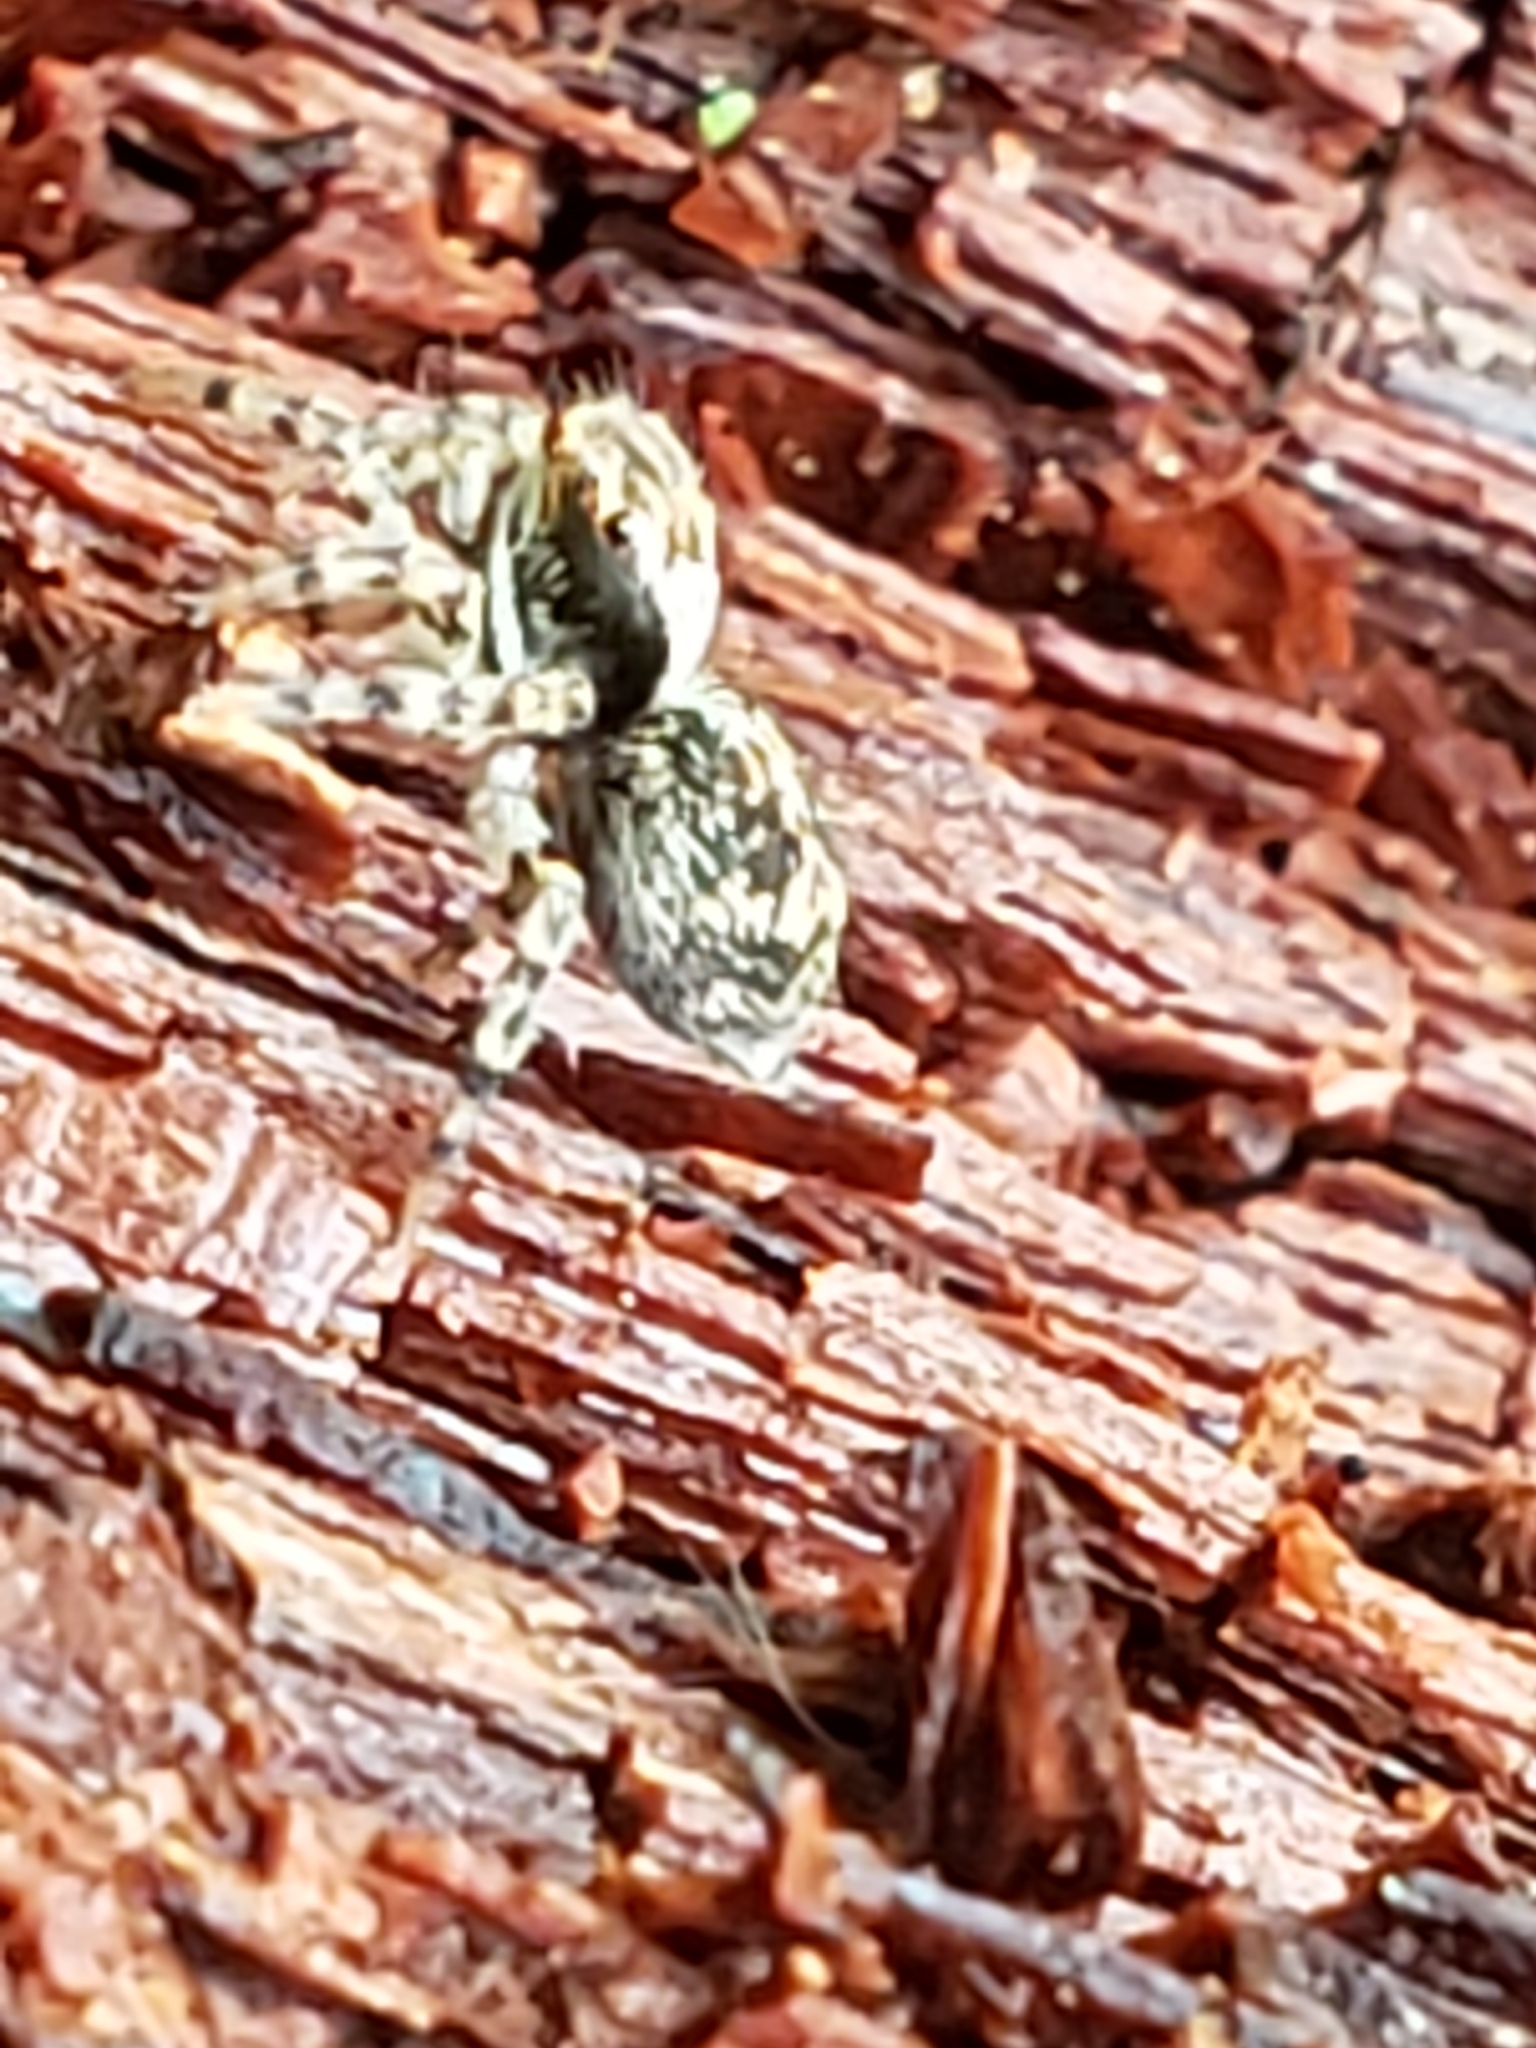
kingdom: Animalia
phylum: Arthropoda
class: Arachnida
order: Araneae
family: Salticidae
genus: Naphrys
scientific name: Naphrys pulex
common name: Flea jumping spider
